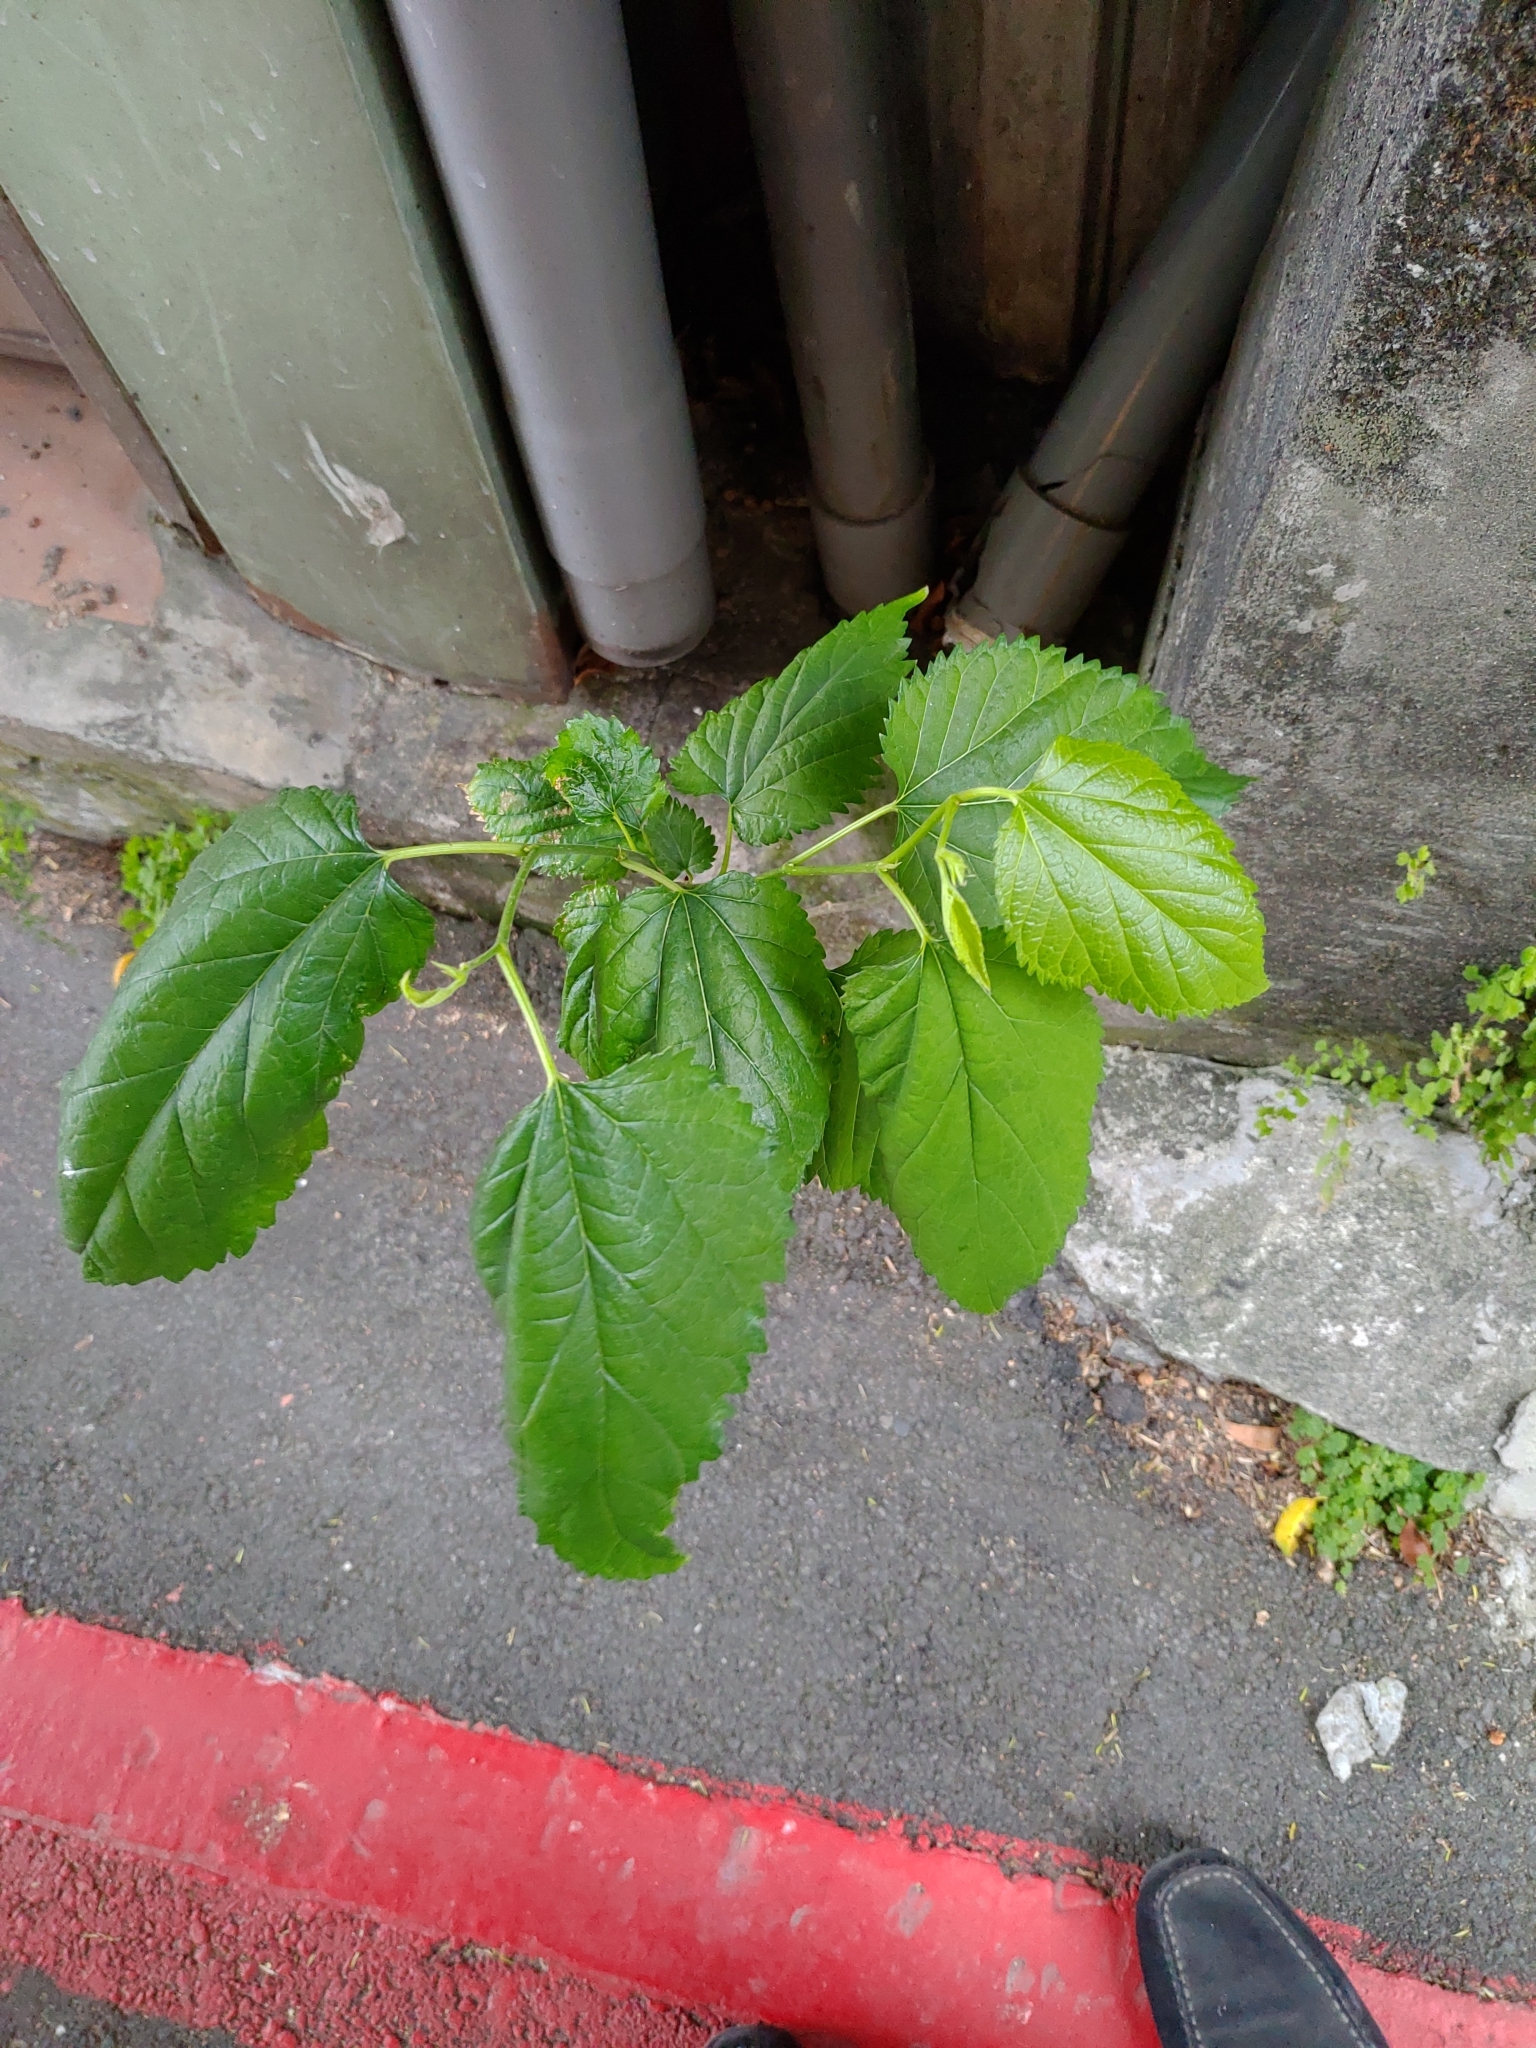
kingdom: Plantae
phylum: Tracheophyta
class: Magnoliopsida
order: Rosales
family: Moraceae
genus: Morus
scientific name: Morus indica
